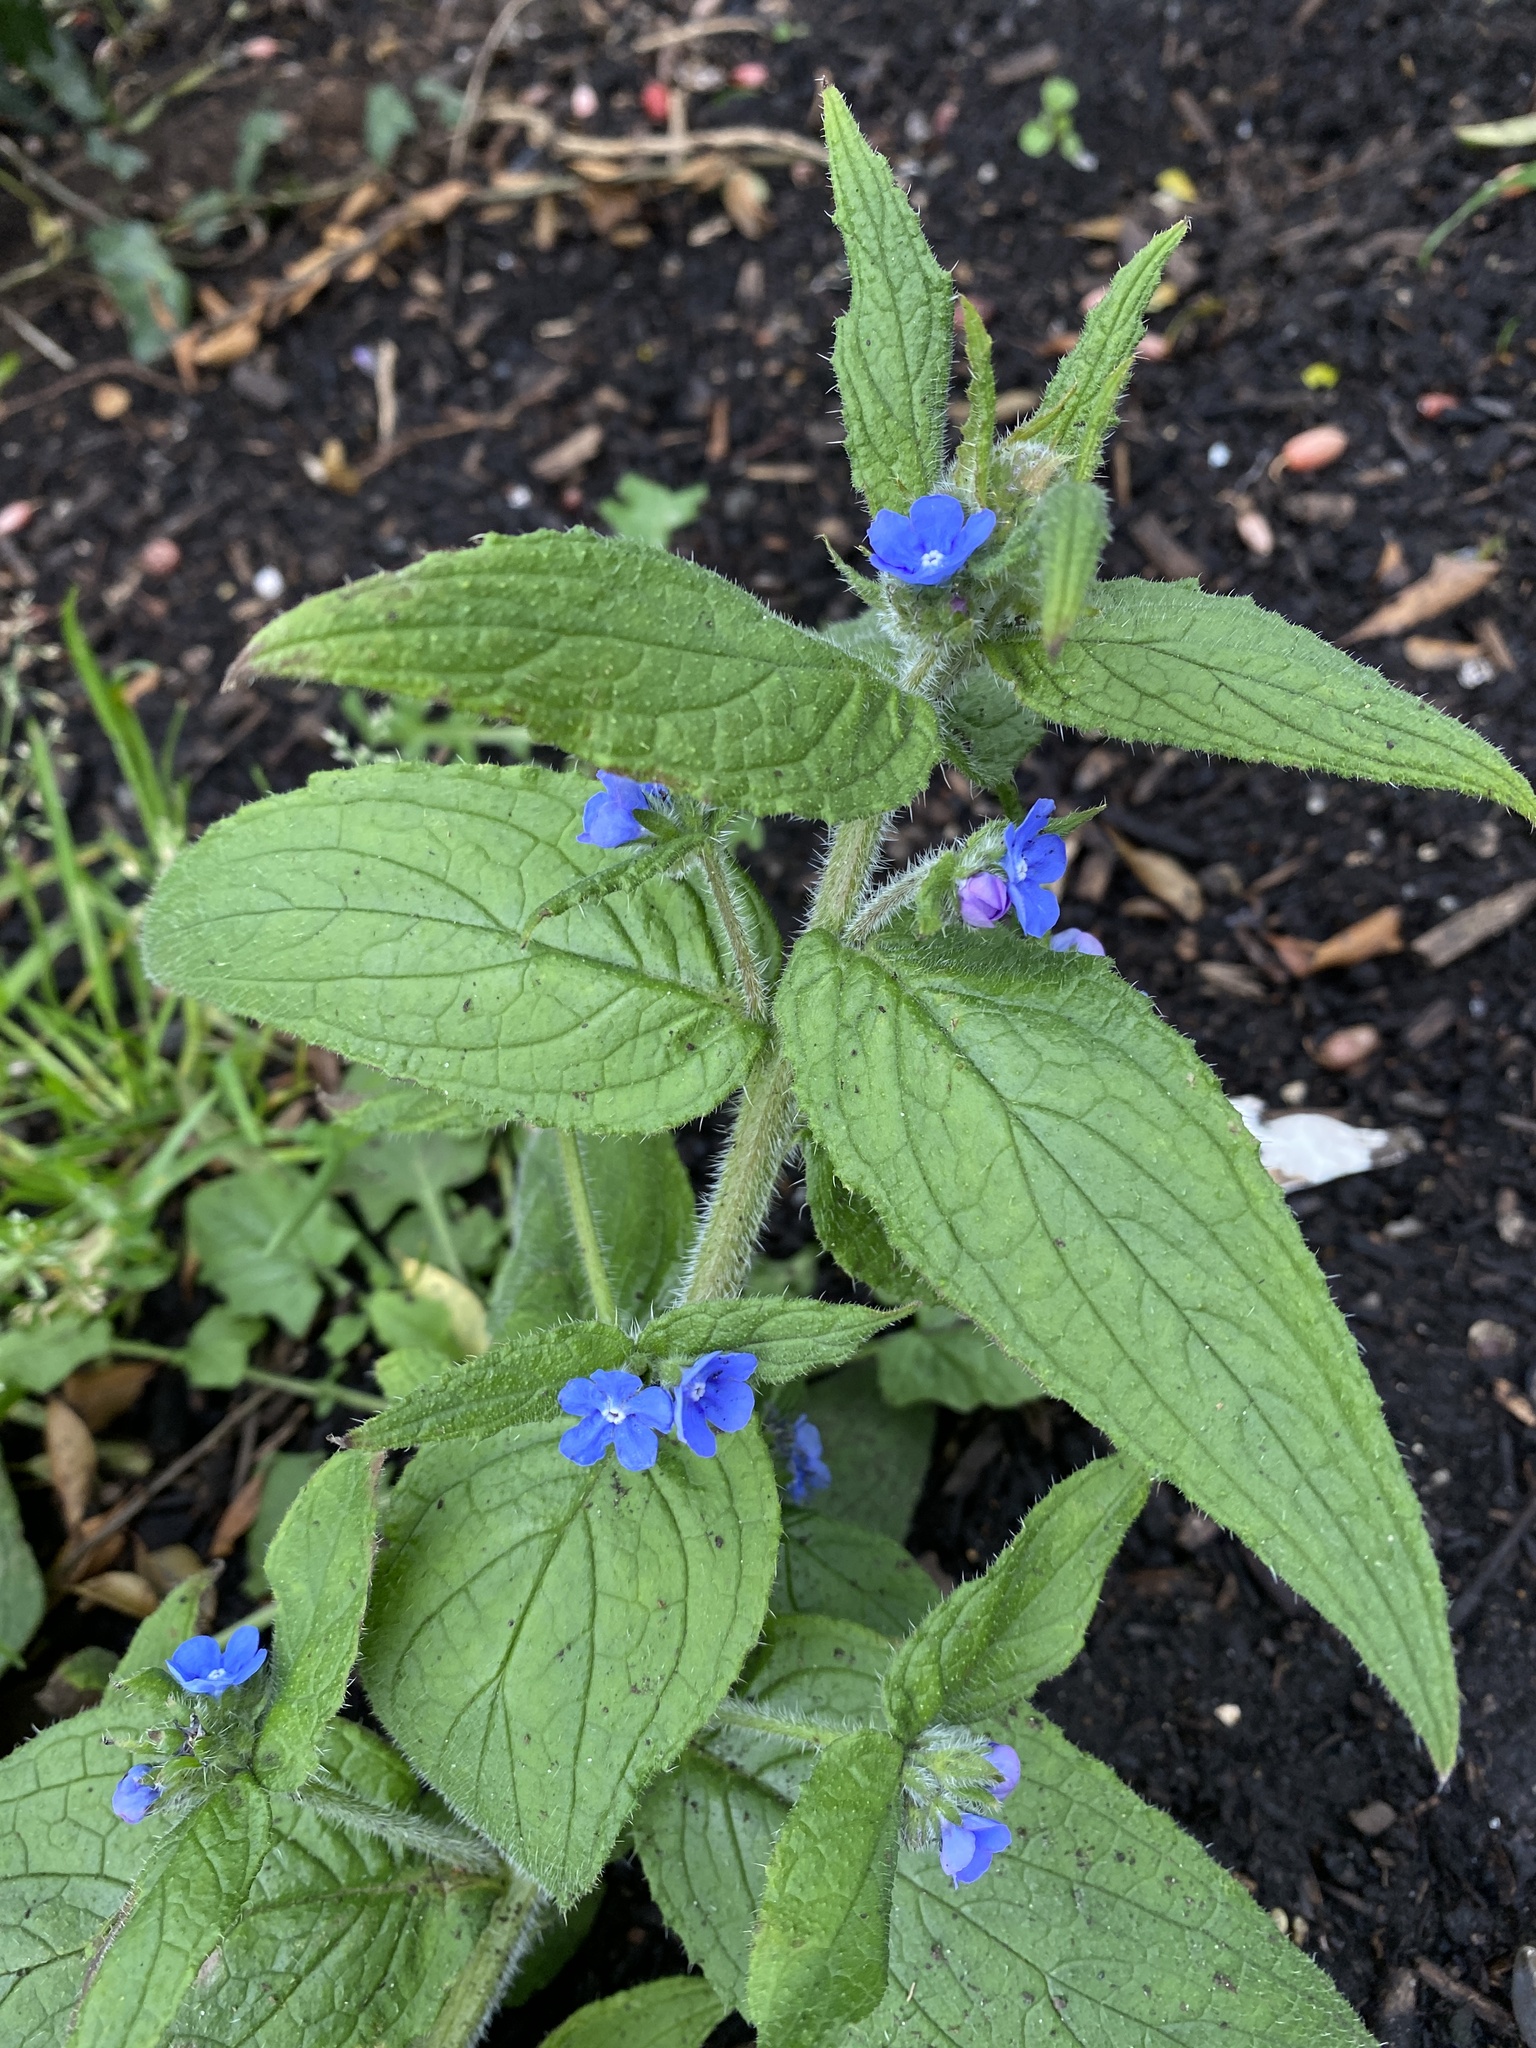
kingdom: Plantae
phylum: Tracheophyta
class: Magnoliopsida
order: Boraginales
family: Boraginaceae
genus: Pentaglottis
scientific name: Pentaglottis sempervirens
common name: Green alkanet
